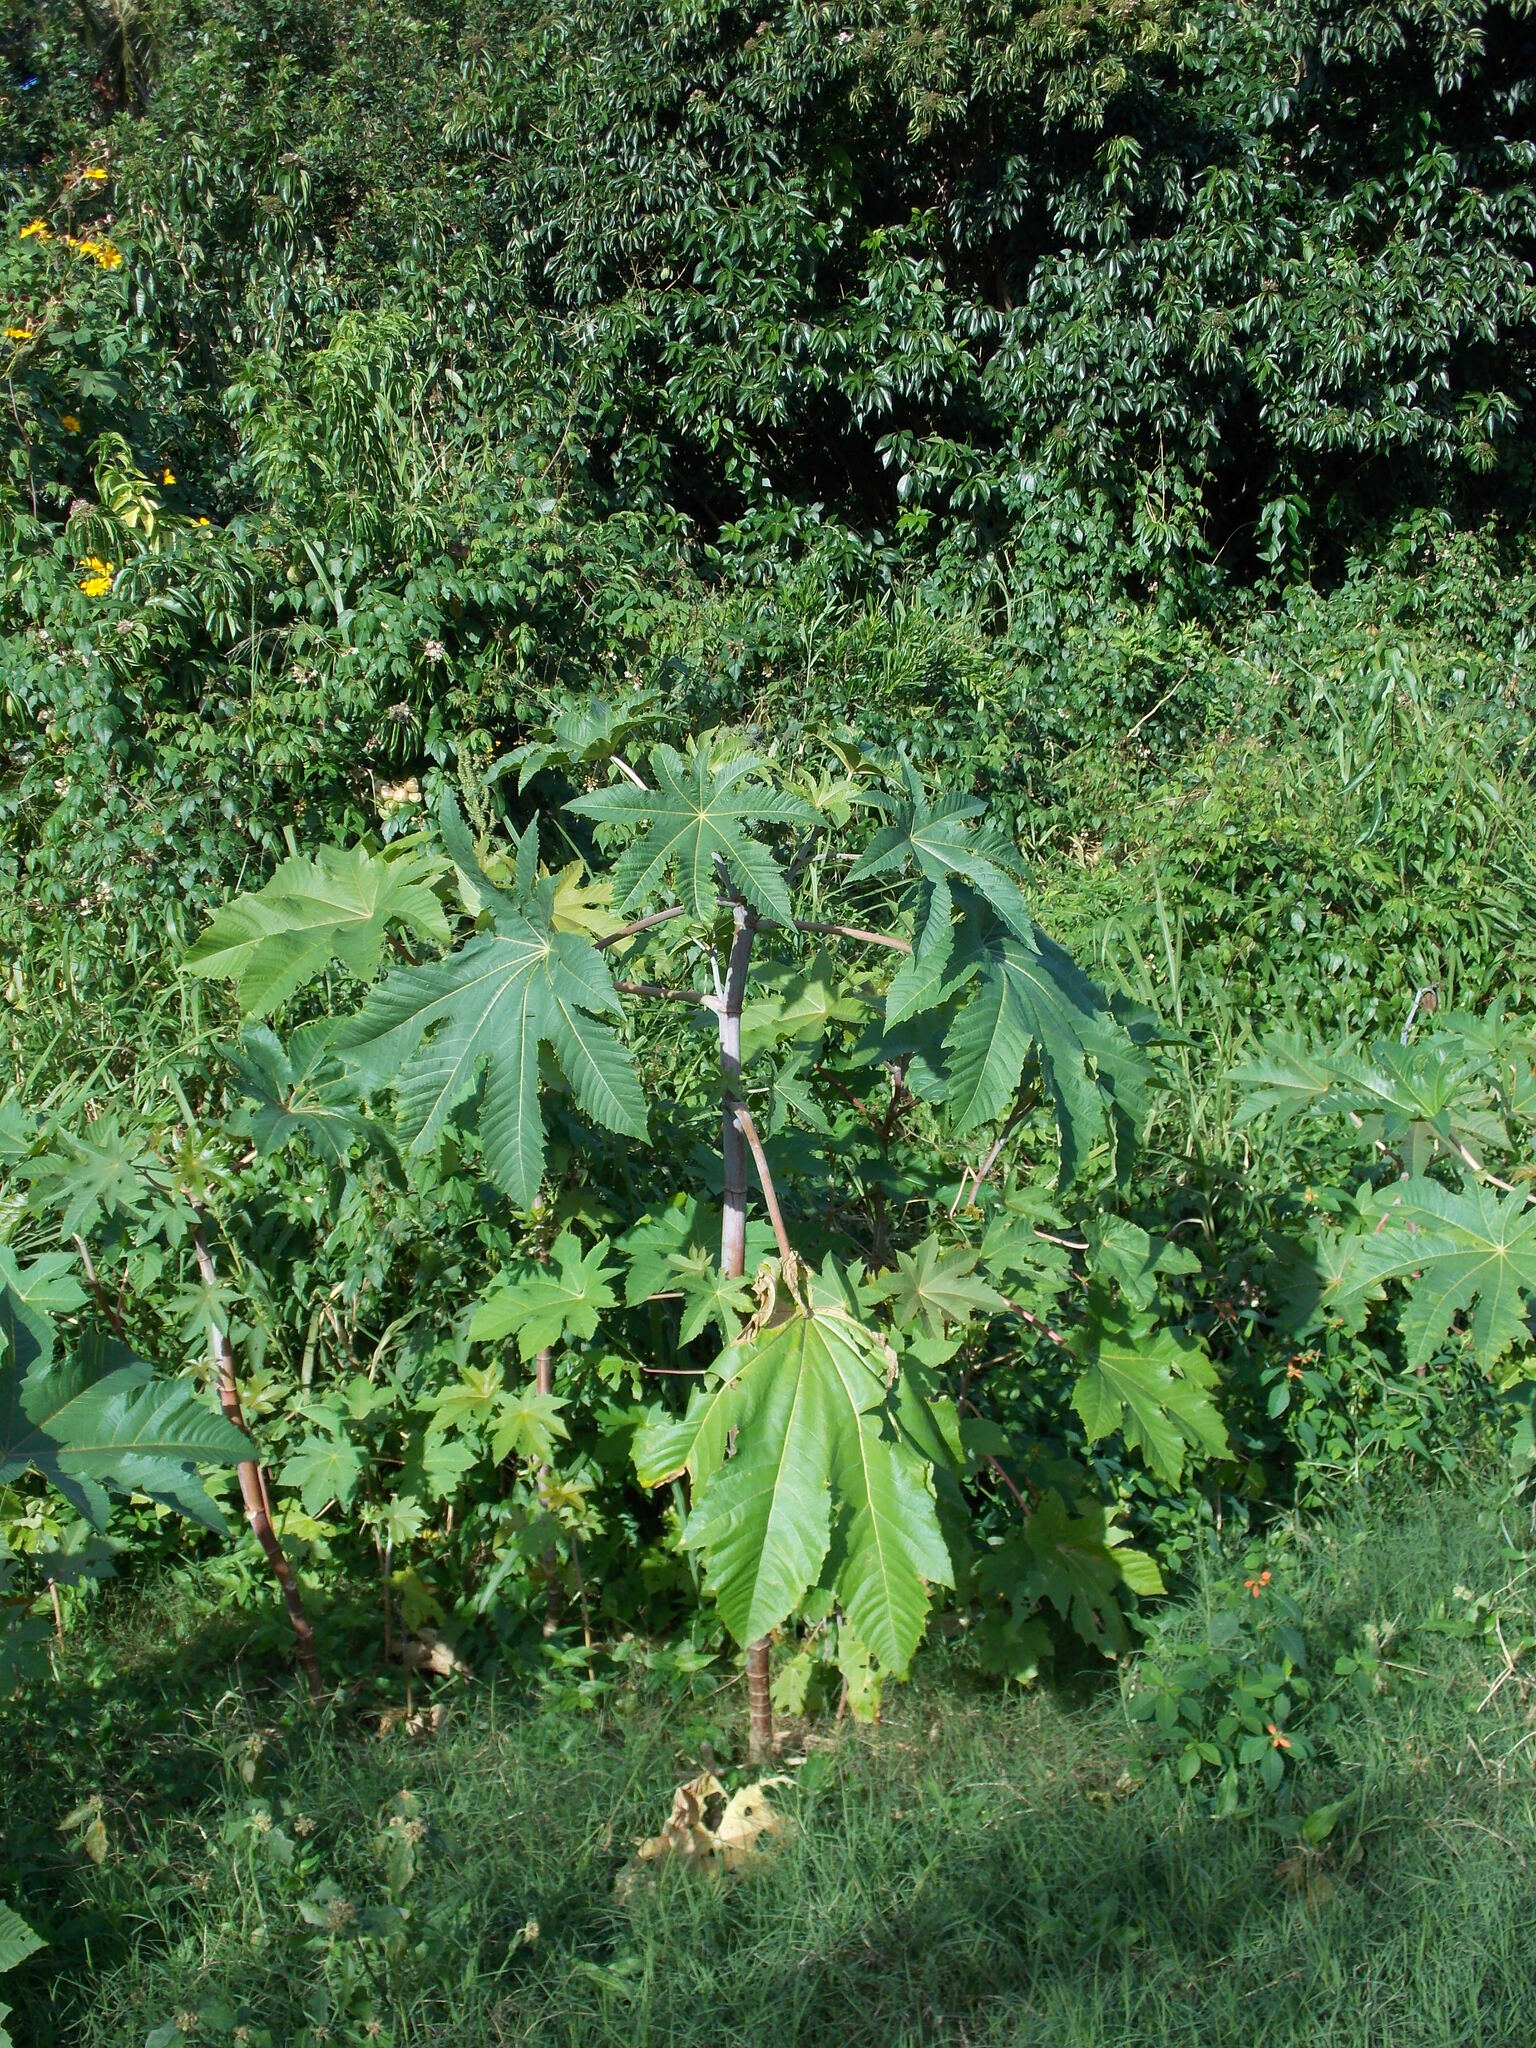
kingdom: Plantae
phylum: Tracheophyta
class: Magnoliopsida
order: Malpighiales
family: Euphorbiaceae
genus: Ricinus
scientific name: Ricinus communis
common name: Castor-oil-plant
